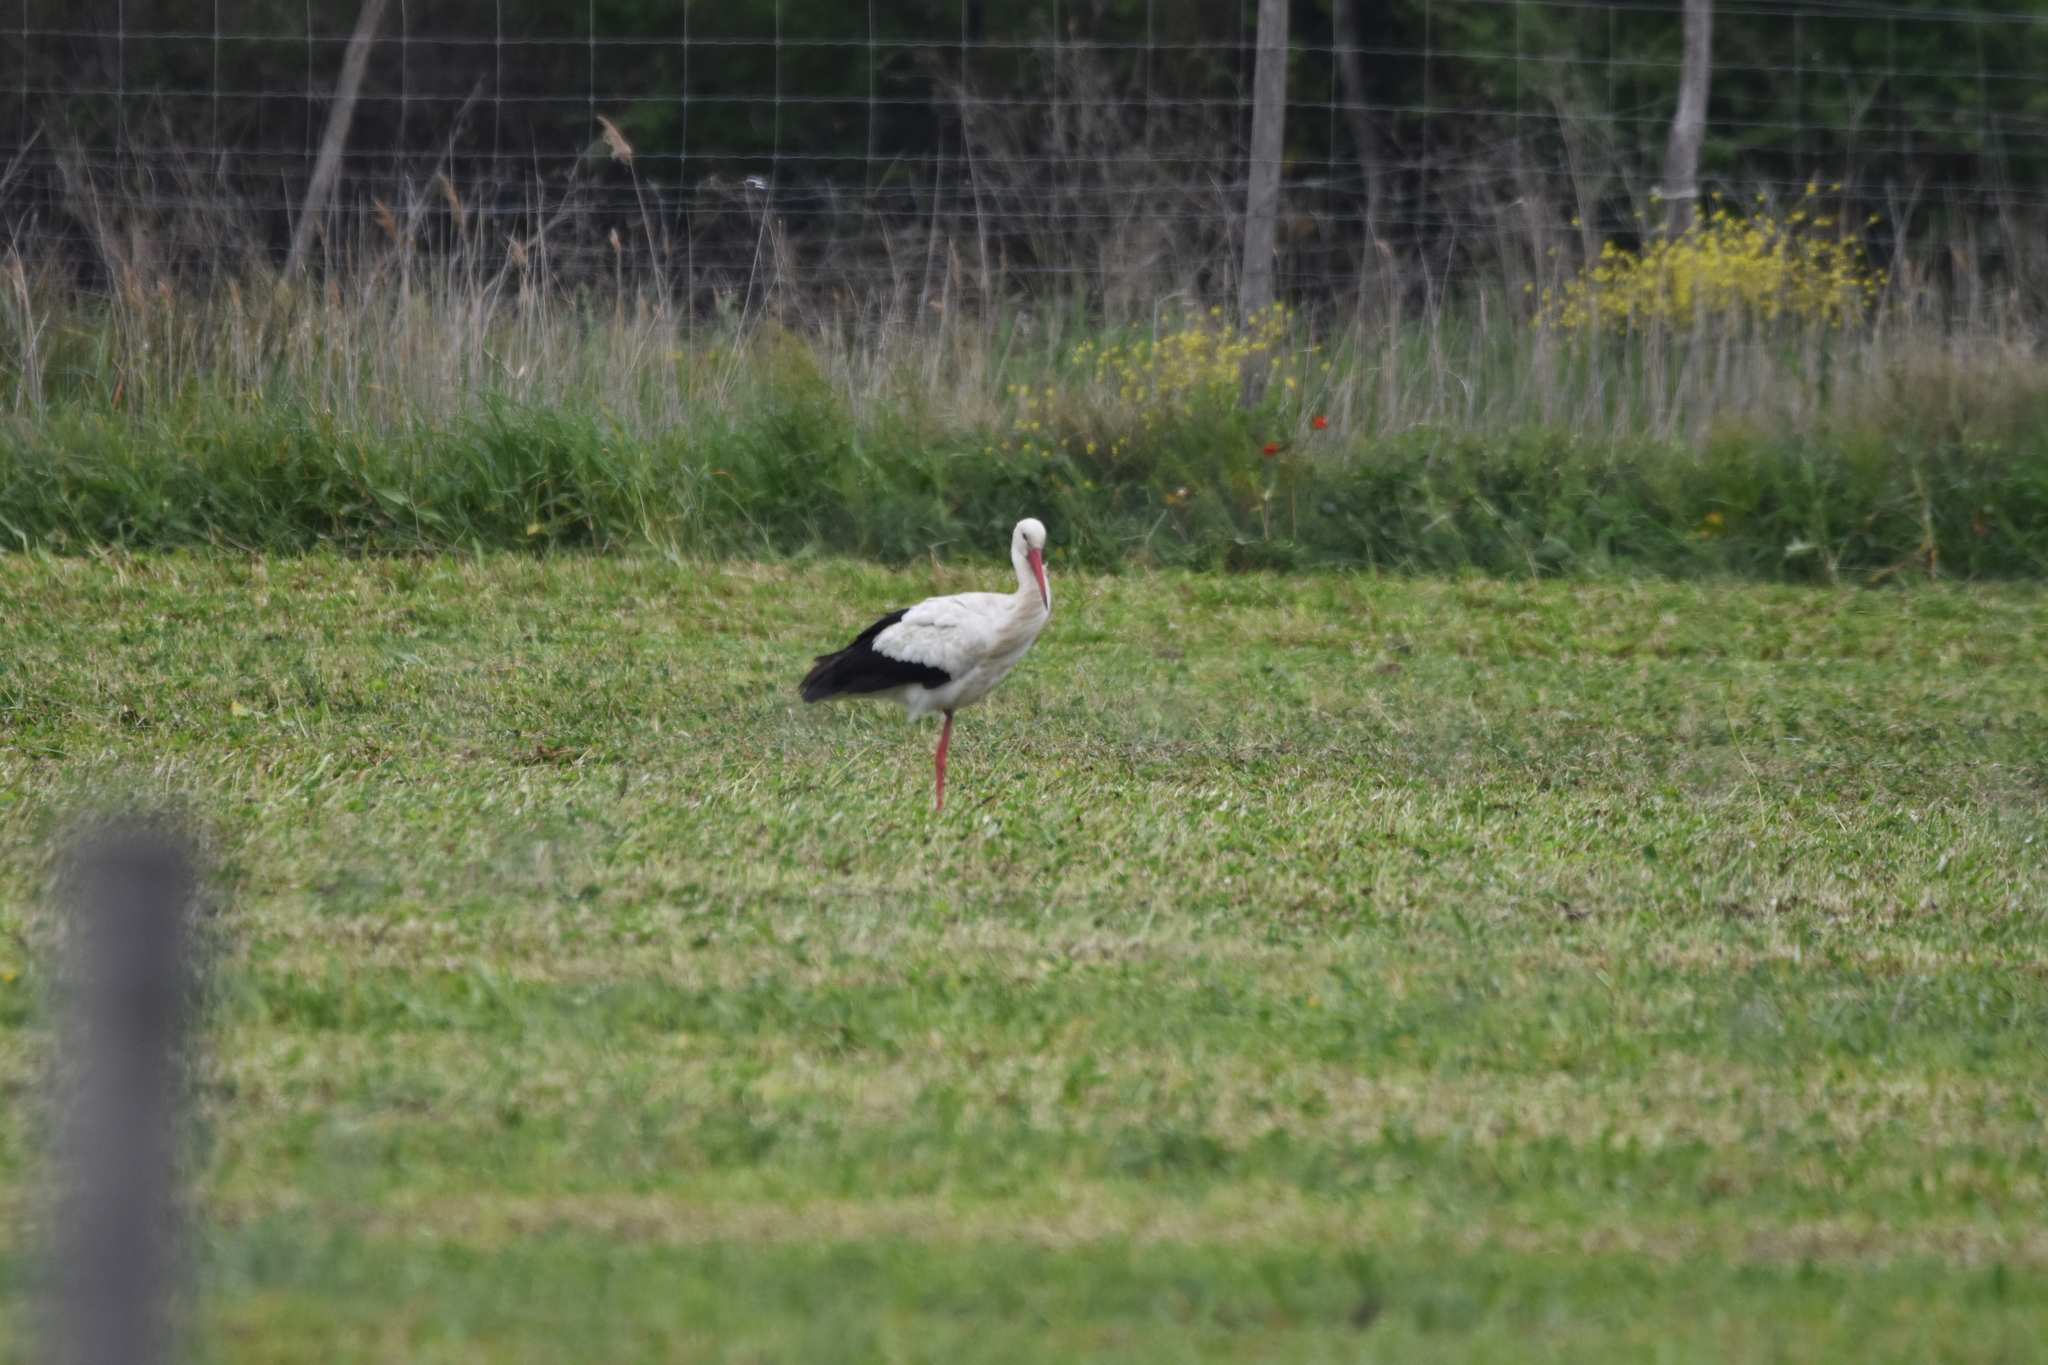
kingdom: Animalia
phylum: Chordata
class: Aves
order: Ciconiiformes
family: Ciconiidae
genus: Ciconia
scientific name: Ciconia ciconia
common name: White stork
